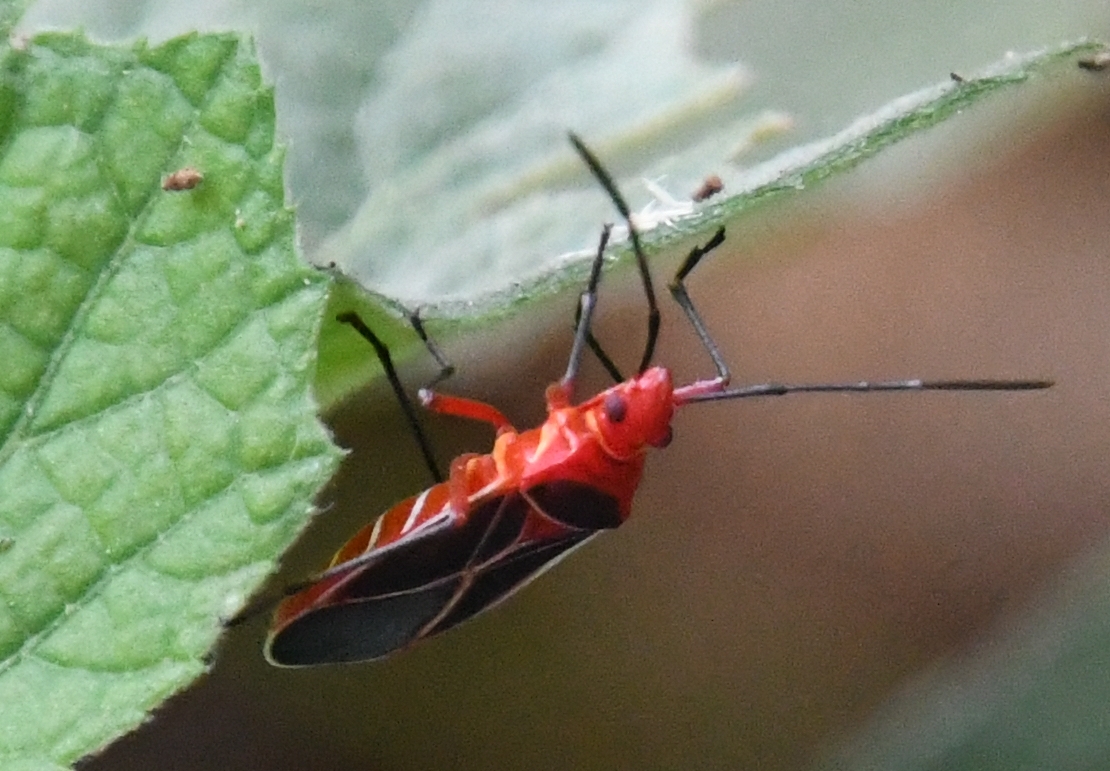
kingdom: Animalia
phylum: Arthropoda
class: Insecta
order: Hemiptera
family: Pyrrhocoridae
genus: Dysdercus
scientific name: Dysdercus suturellus
